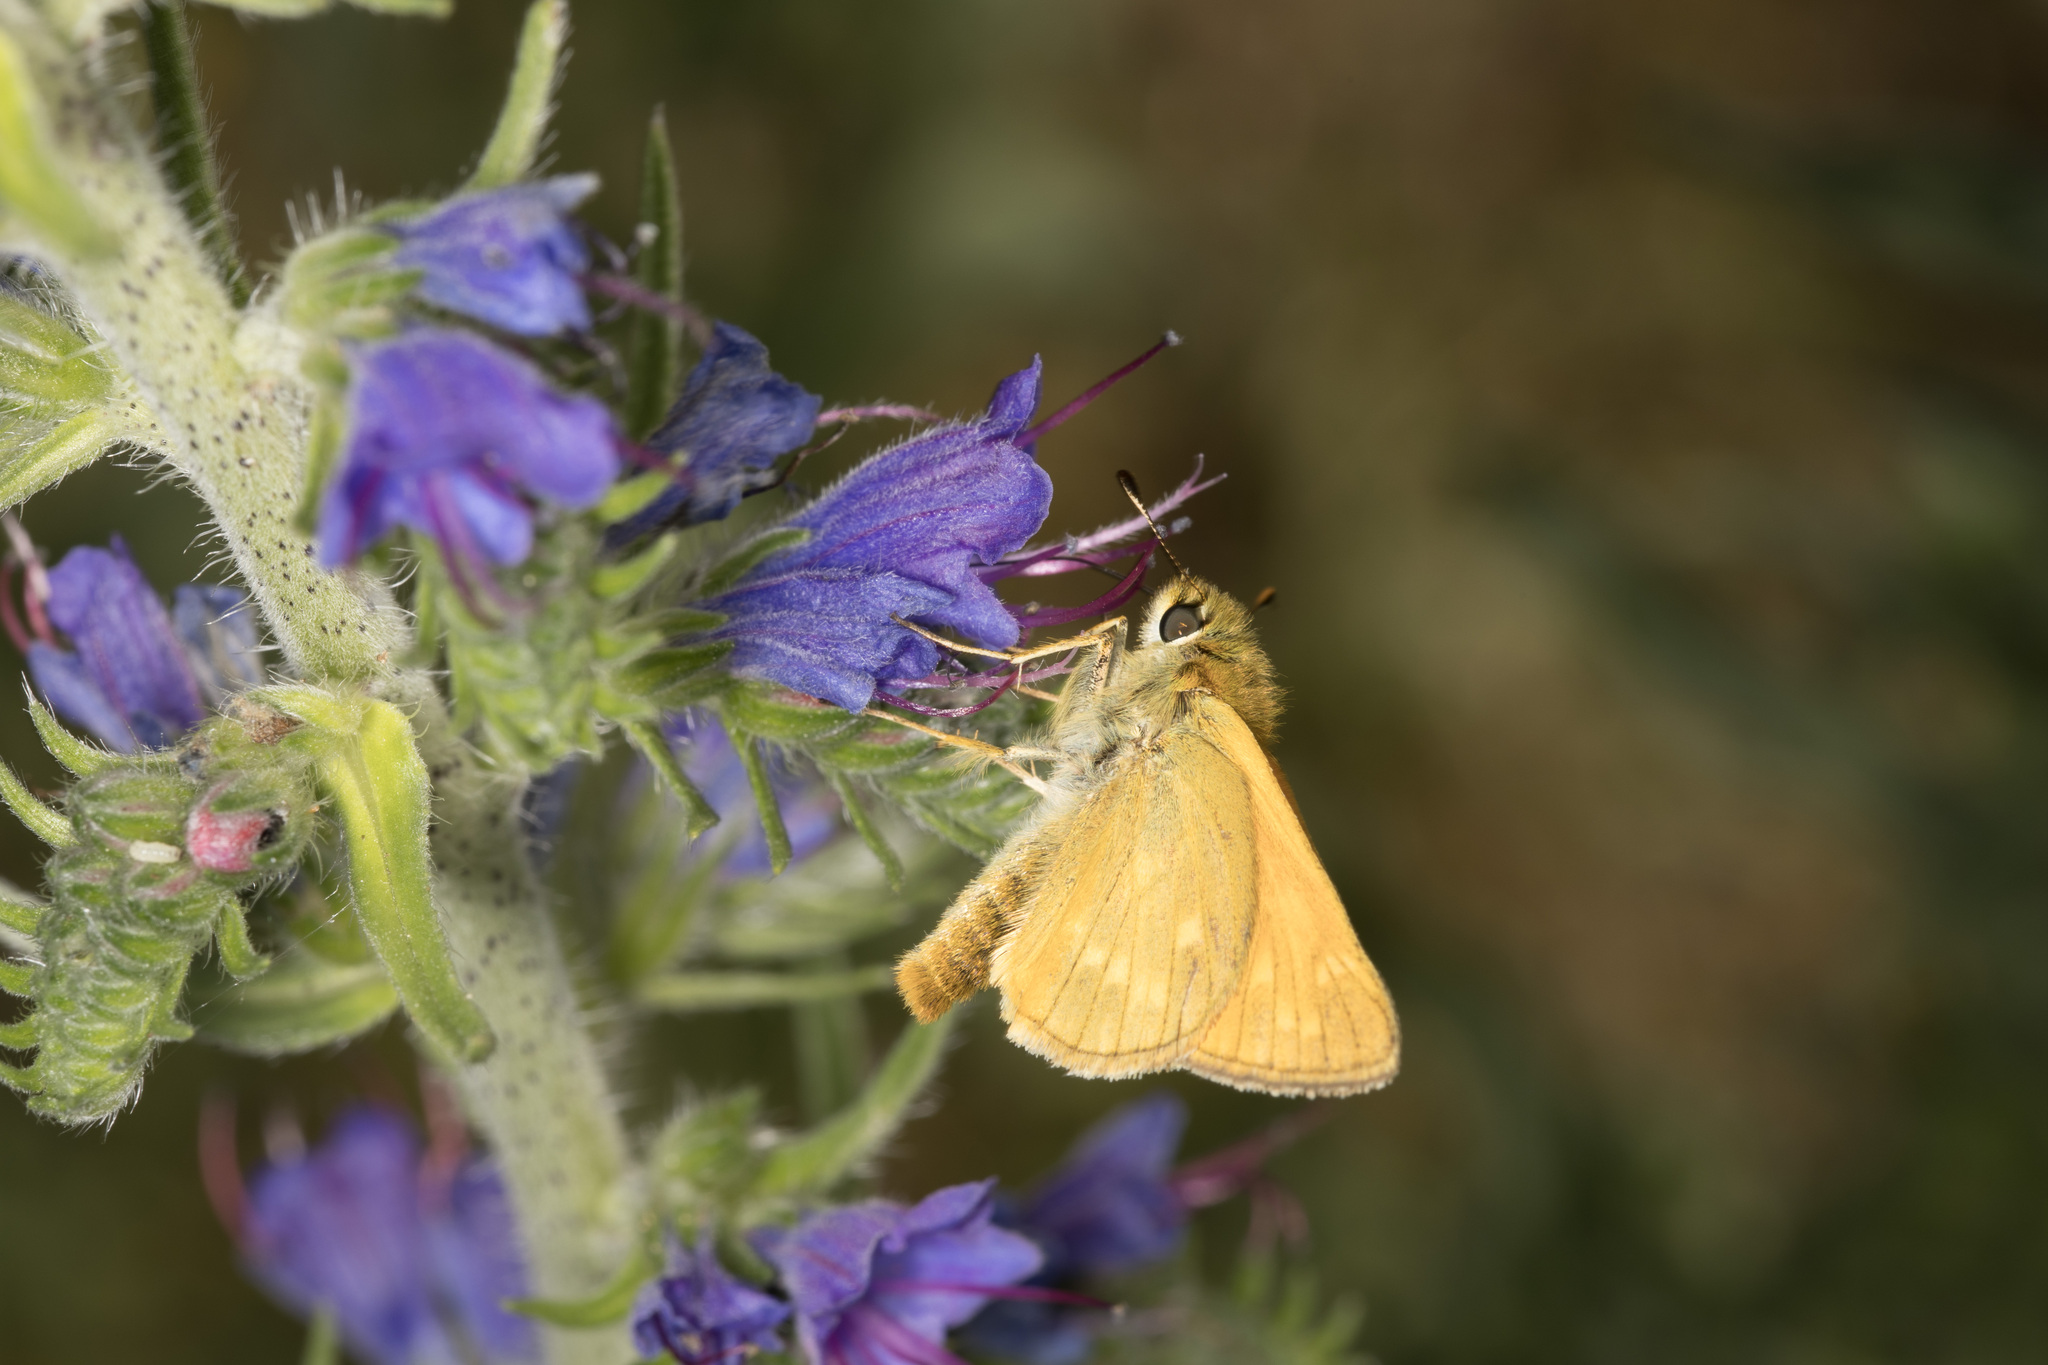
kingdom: Animalia
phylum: Arthropoda
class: Insecta
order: Lepidoptera
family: Hesperiidae
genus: Ochlodes
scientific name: Ochlodes venata
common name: Large skipper
